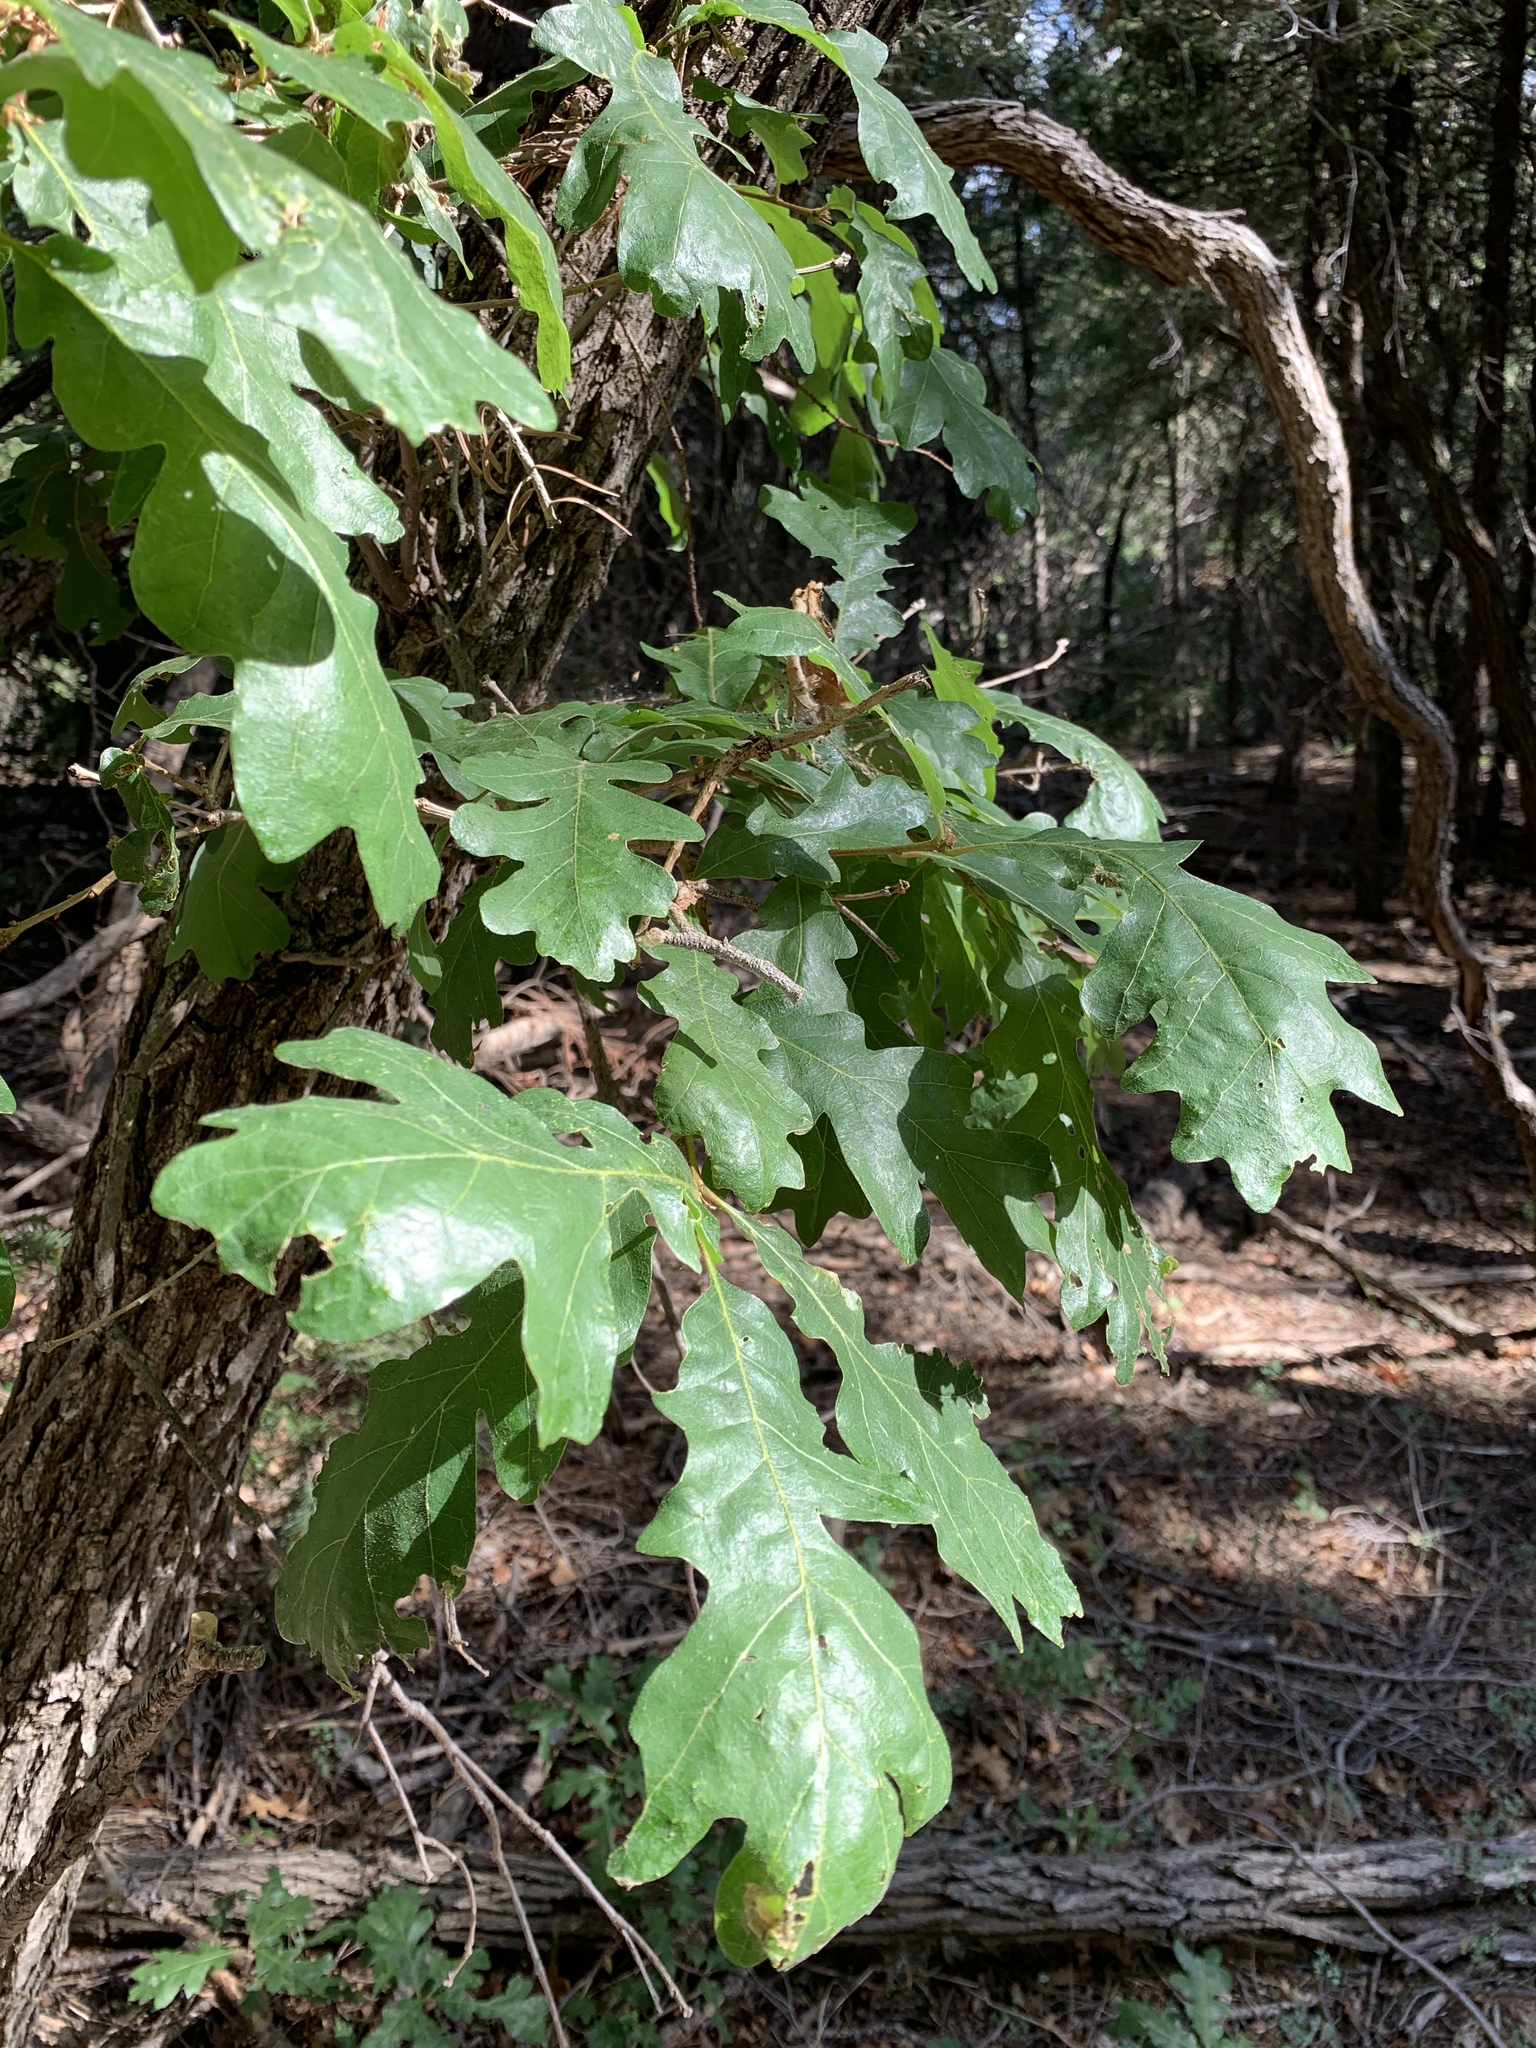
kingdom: Plantae
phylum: Tracheophyta
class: Magnoliopsida
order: Fagales
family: Fagaceae
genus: Quercus
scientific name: Quercus gambelii
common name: Gambel oak
